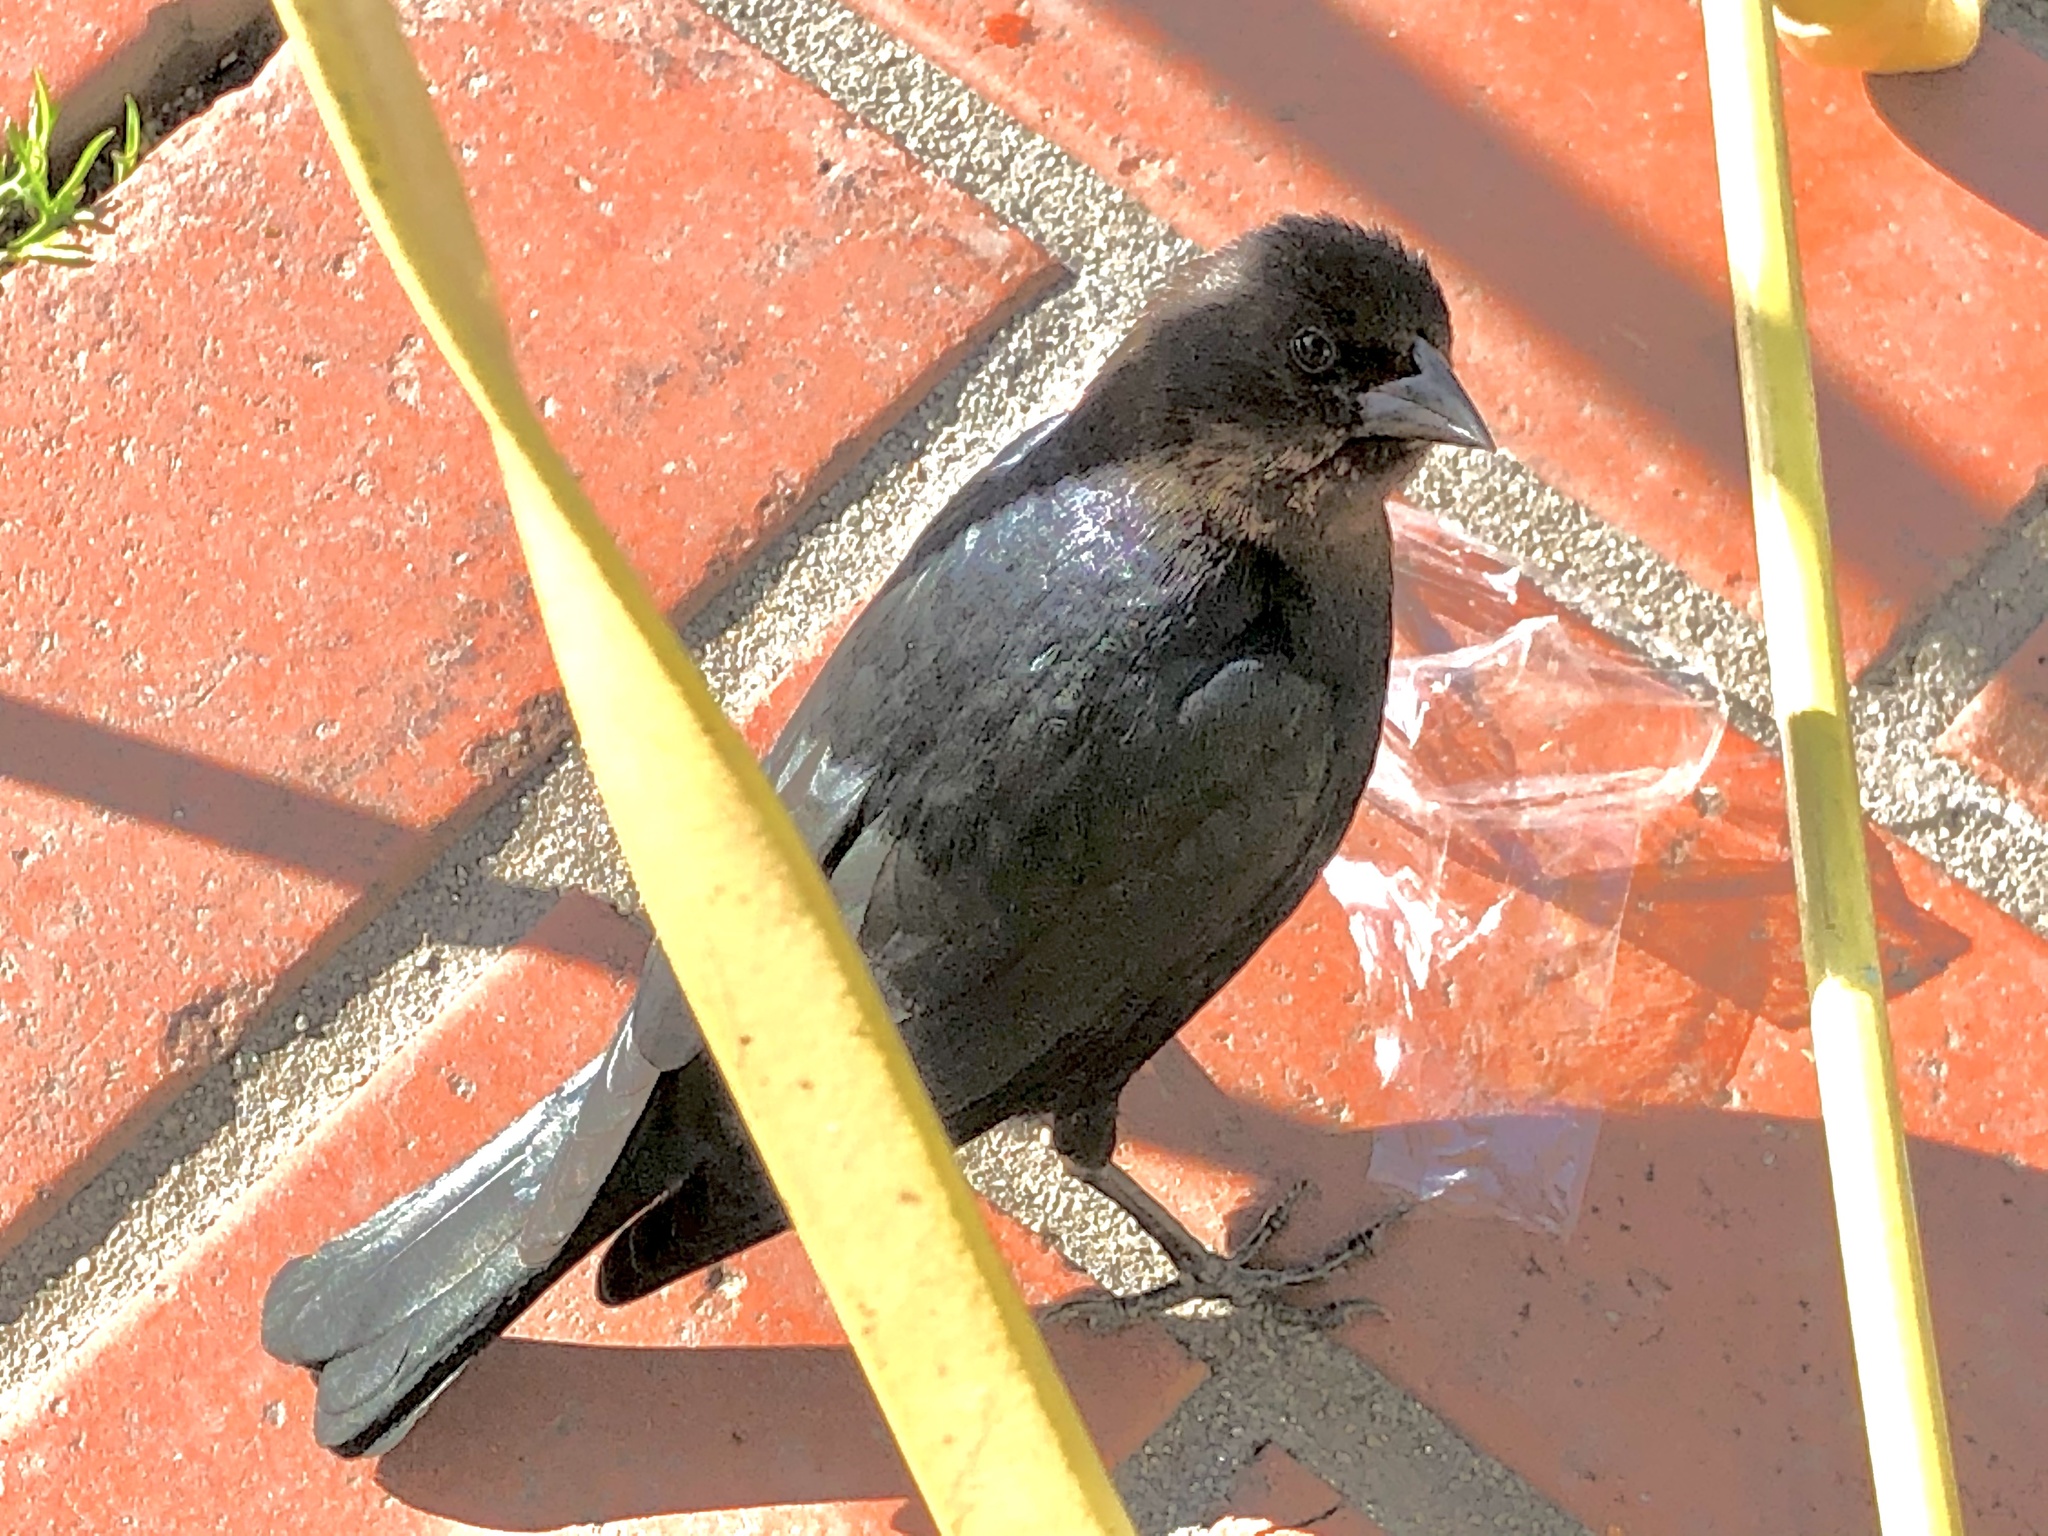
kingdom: Animalia
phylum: Chordata
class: Aves
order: Passeriformes
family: Icteridae
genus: Molothrus
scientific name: Molothrus ater
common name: Brown-headed cowbird
